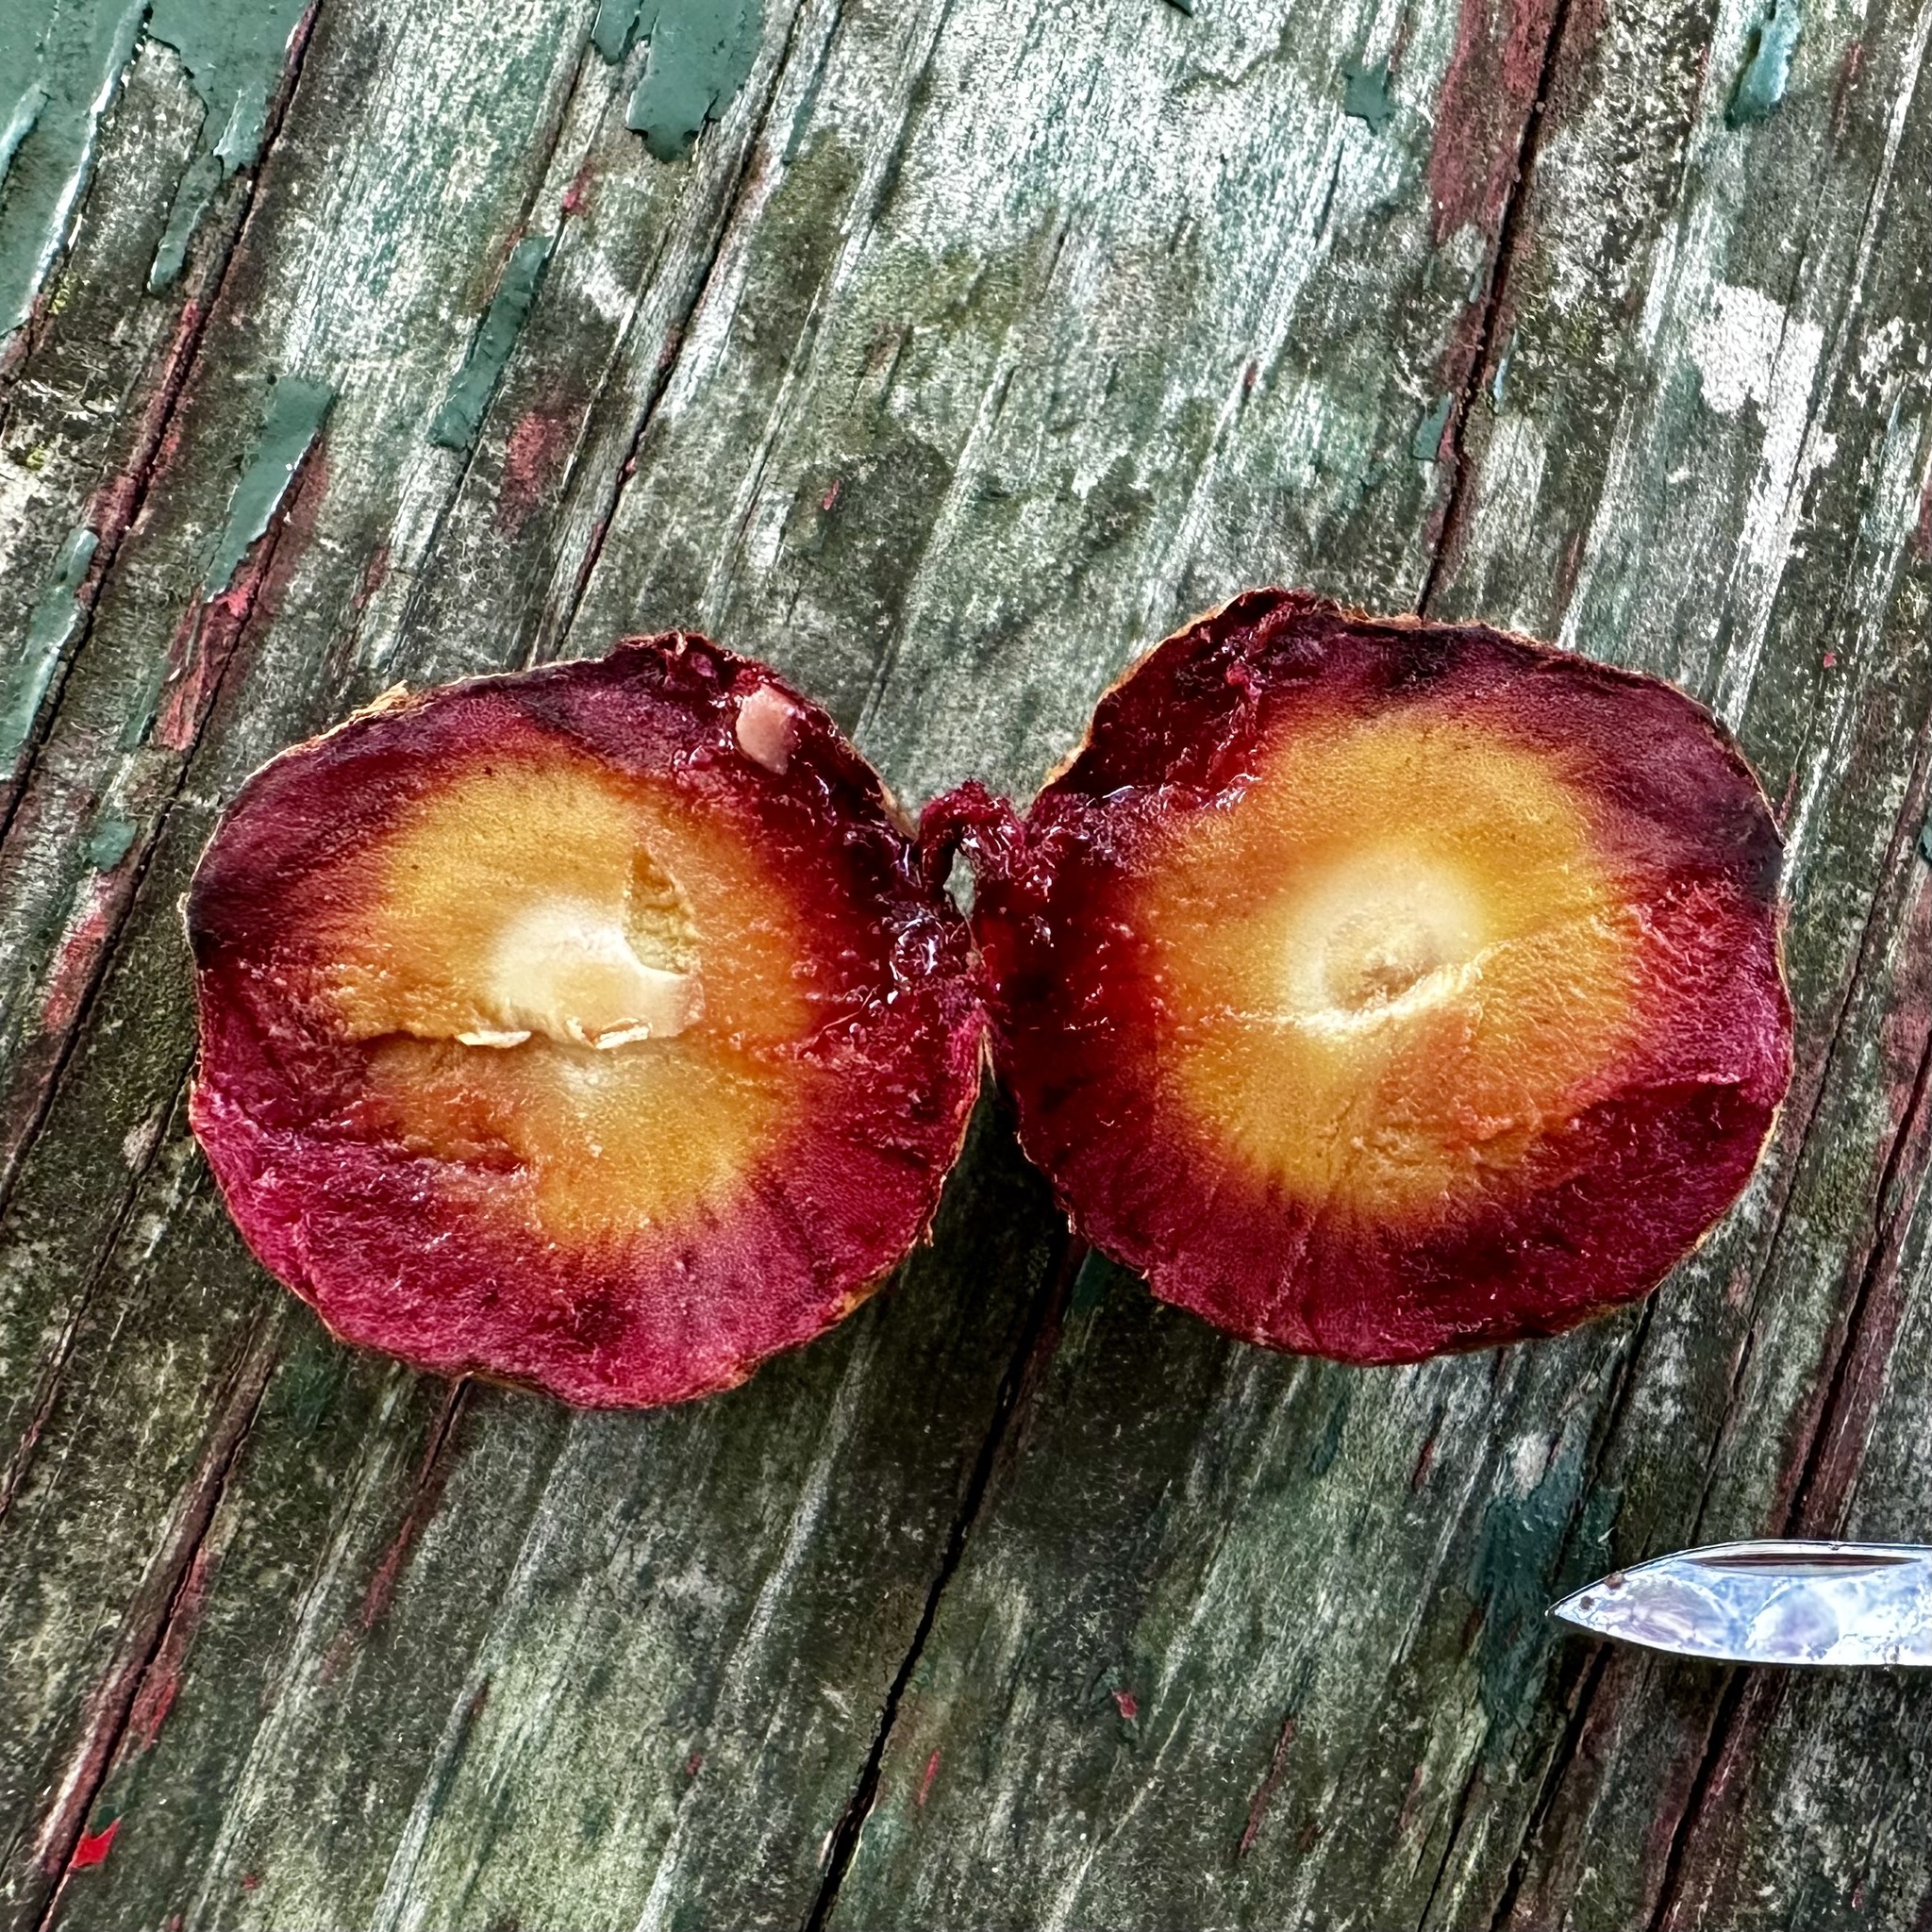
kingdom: Animalia
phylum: Arthropoda
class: Insecta
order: Hymenoptera
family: Cynipidae
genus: Amphibolips
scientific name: Amphibolips
